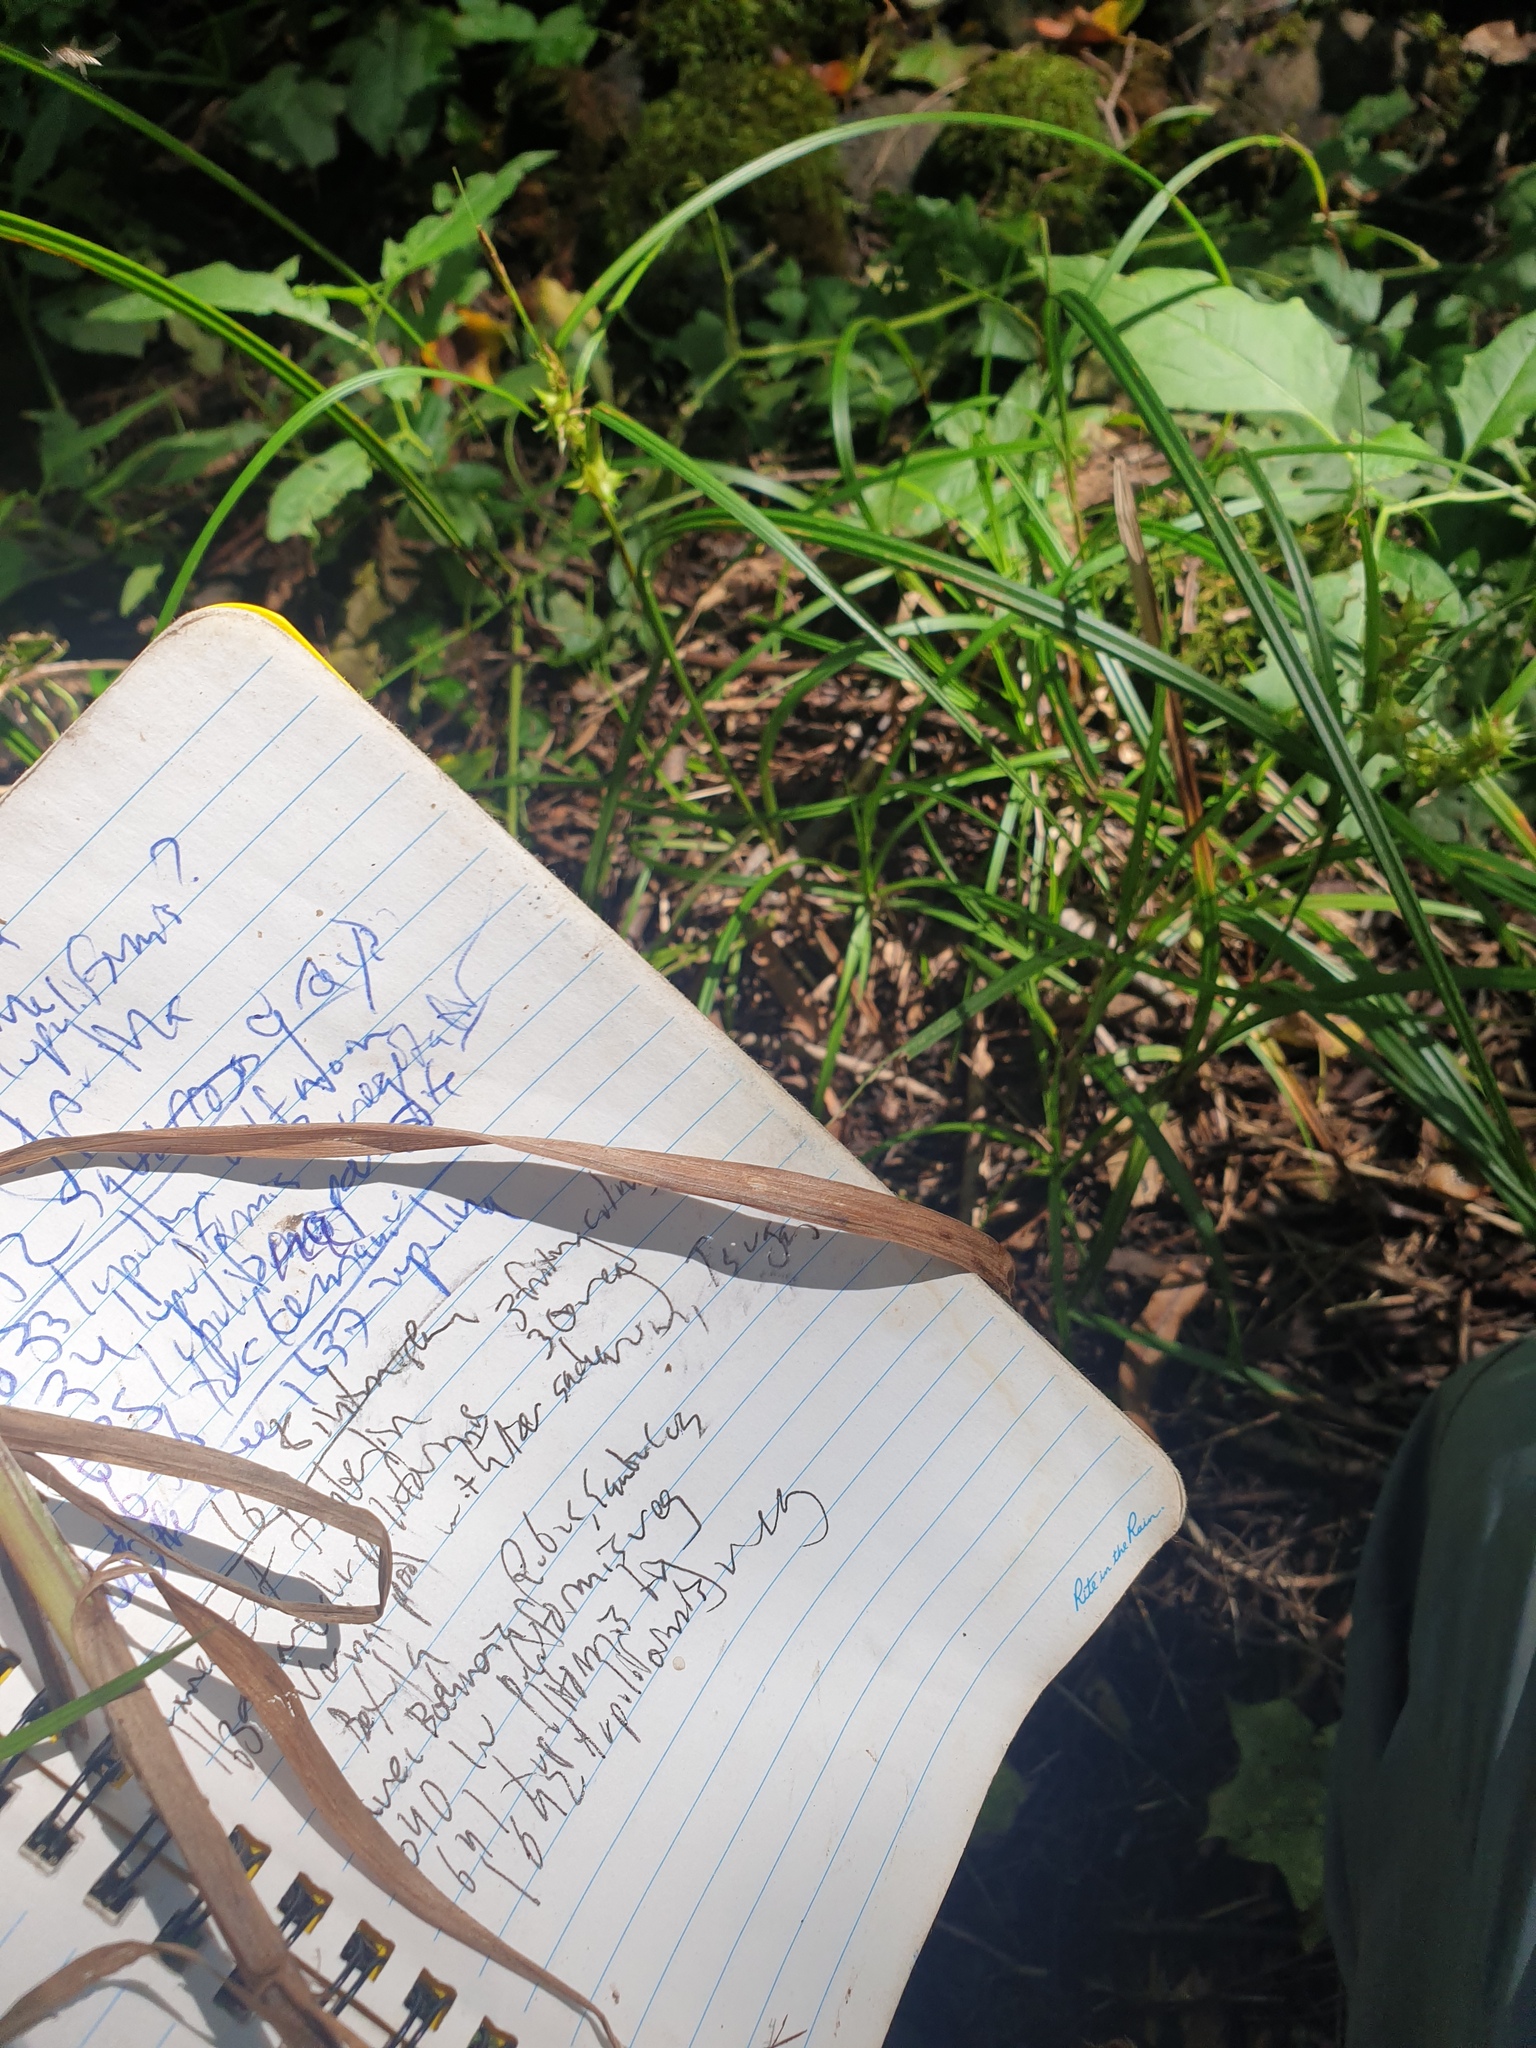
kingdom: Plantae
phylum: Tracheophyta
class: Liliopsida
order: Poales
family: Cyperaceae
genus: Carex
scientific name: Carex lupuliformis
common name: False hop sedge
